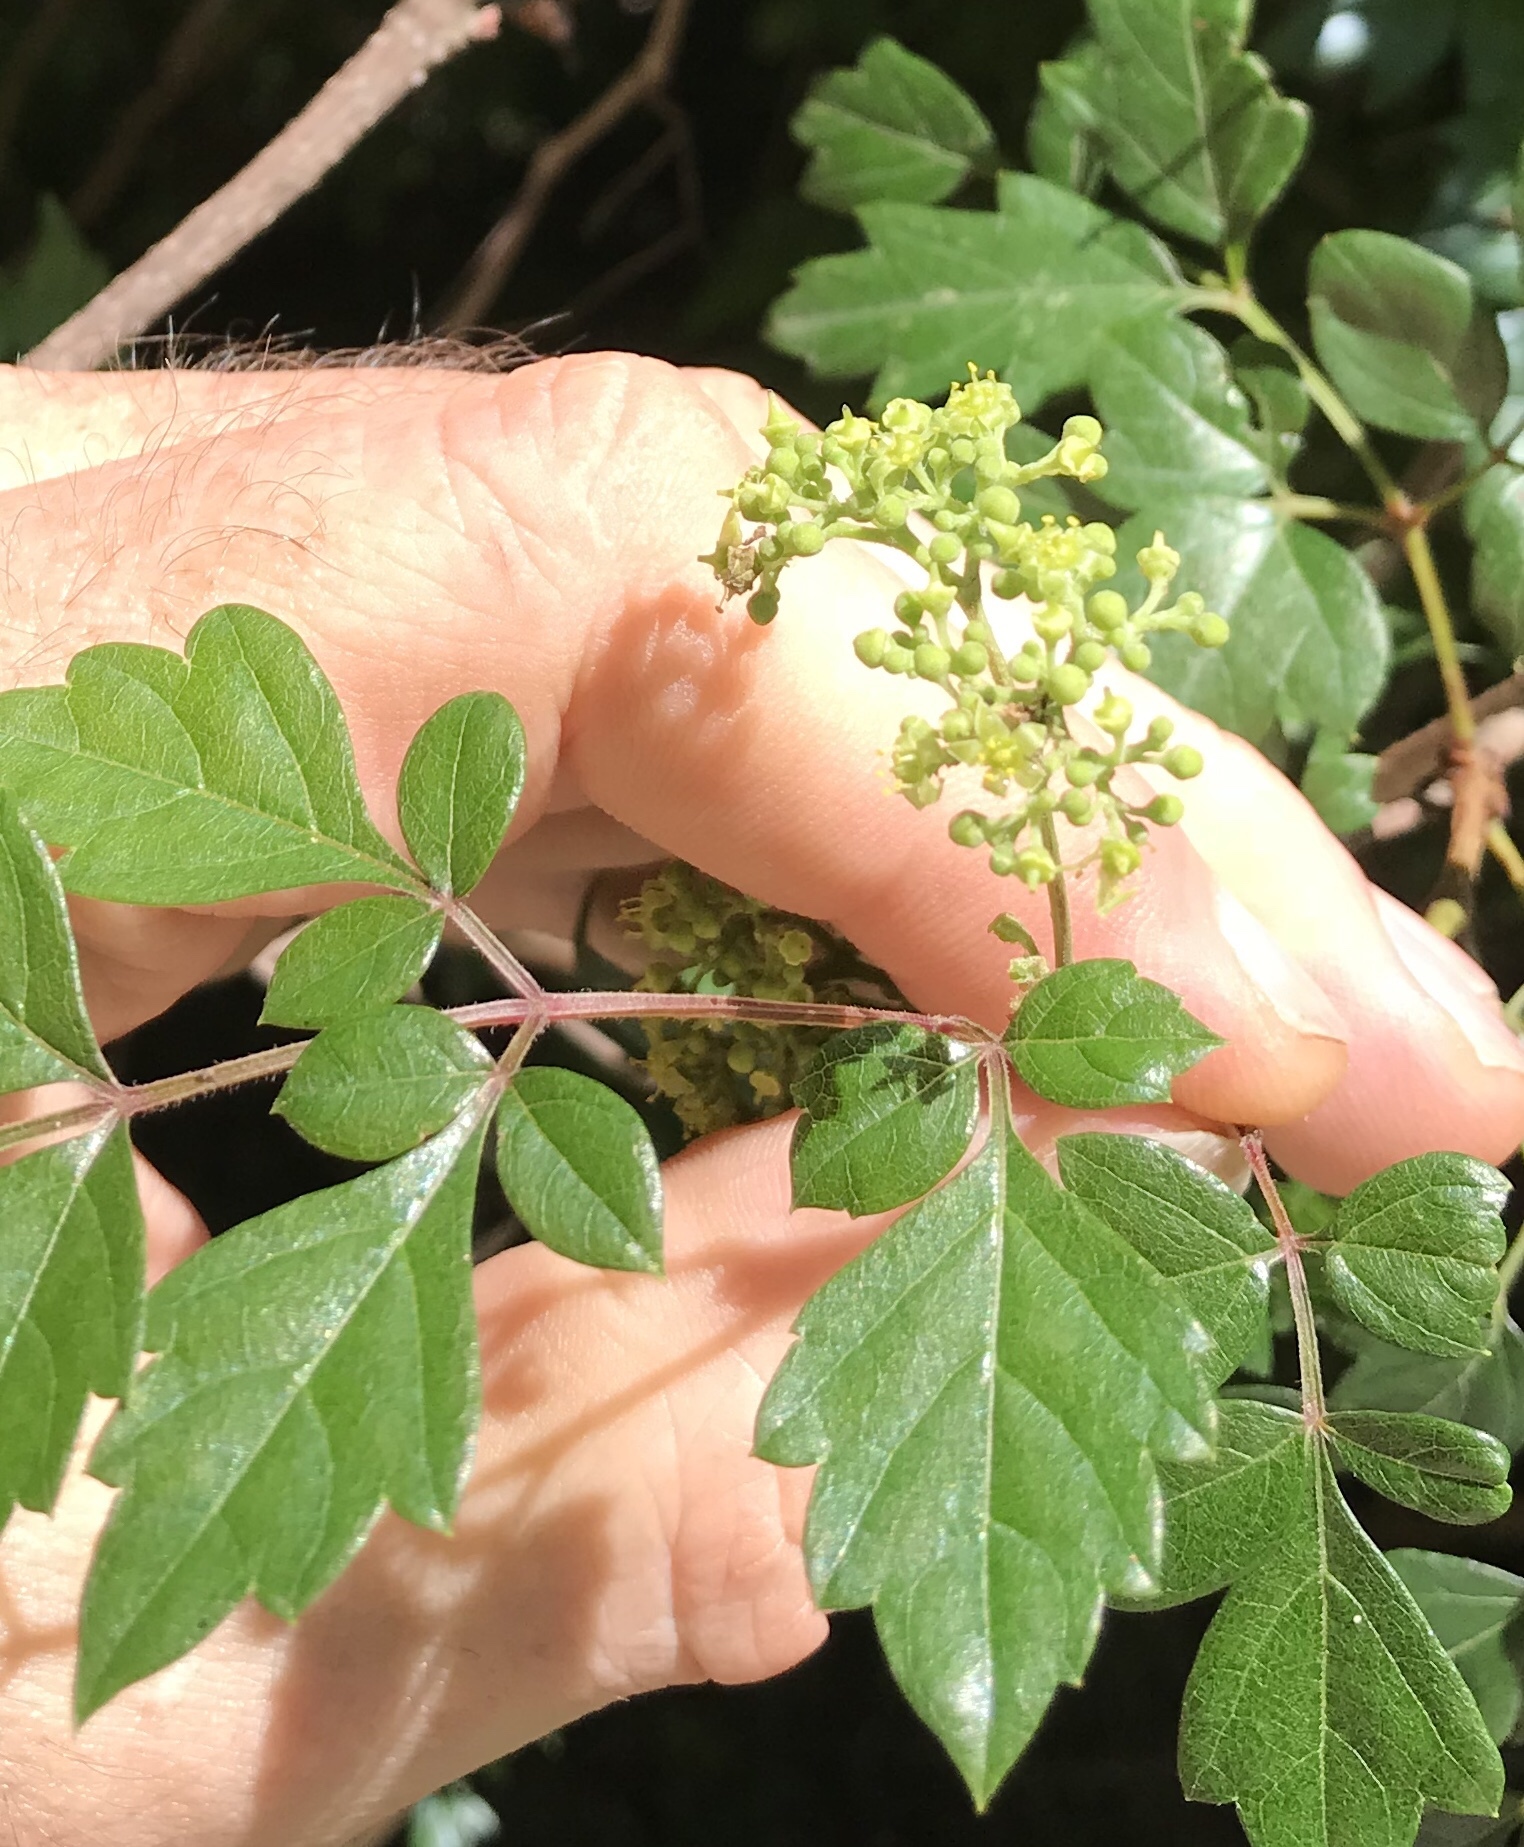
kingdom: Plantae
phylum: Tracheophyta
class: Magnoliopsida
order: Vitales
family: Vitaceae
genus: Nekemias
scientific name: Nekemias arborea
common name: Peppervine
